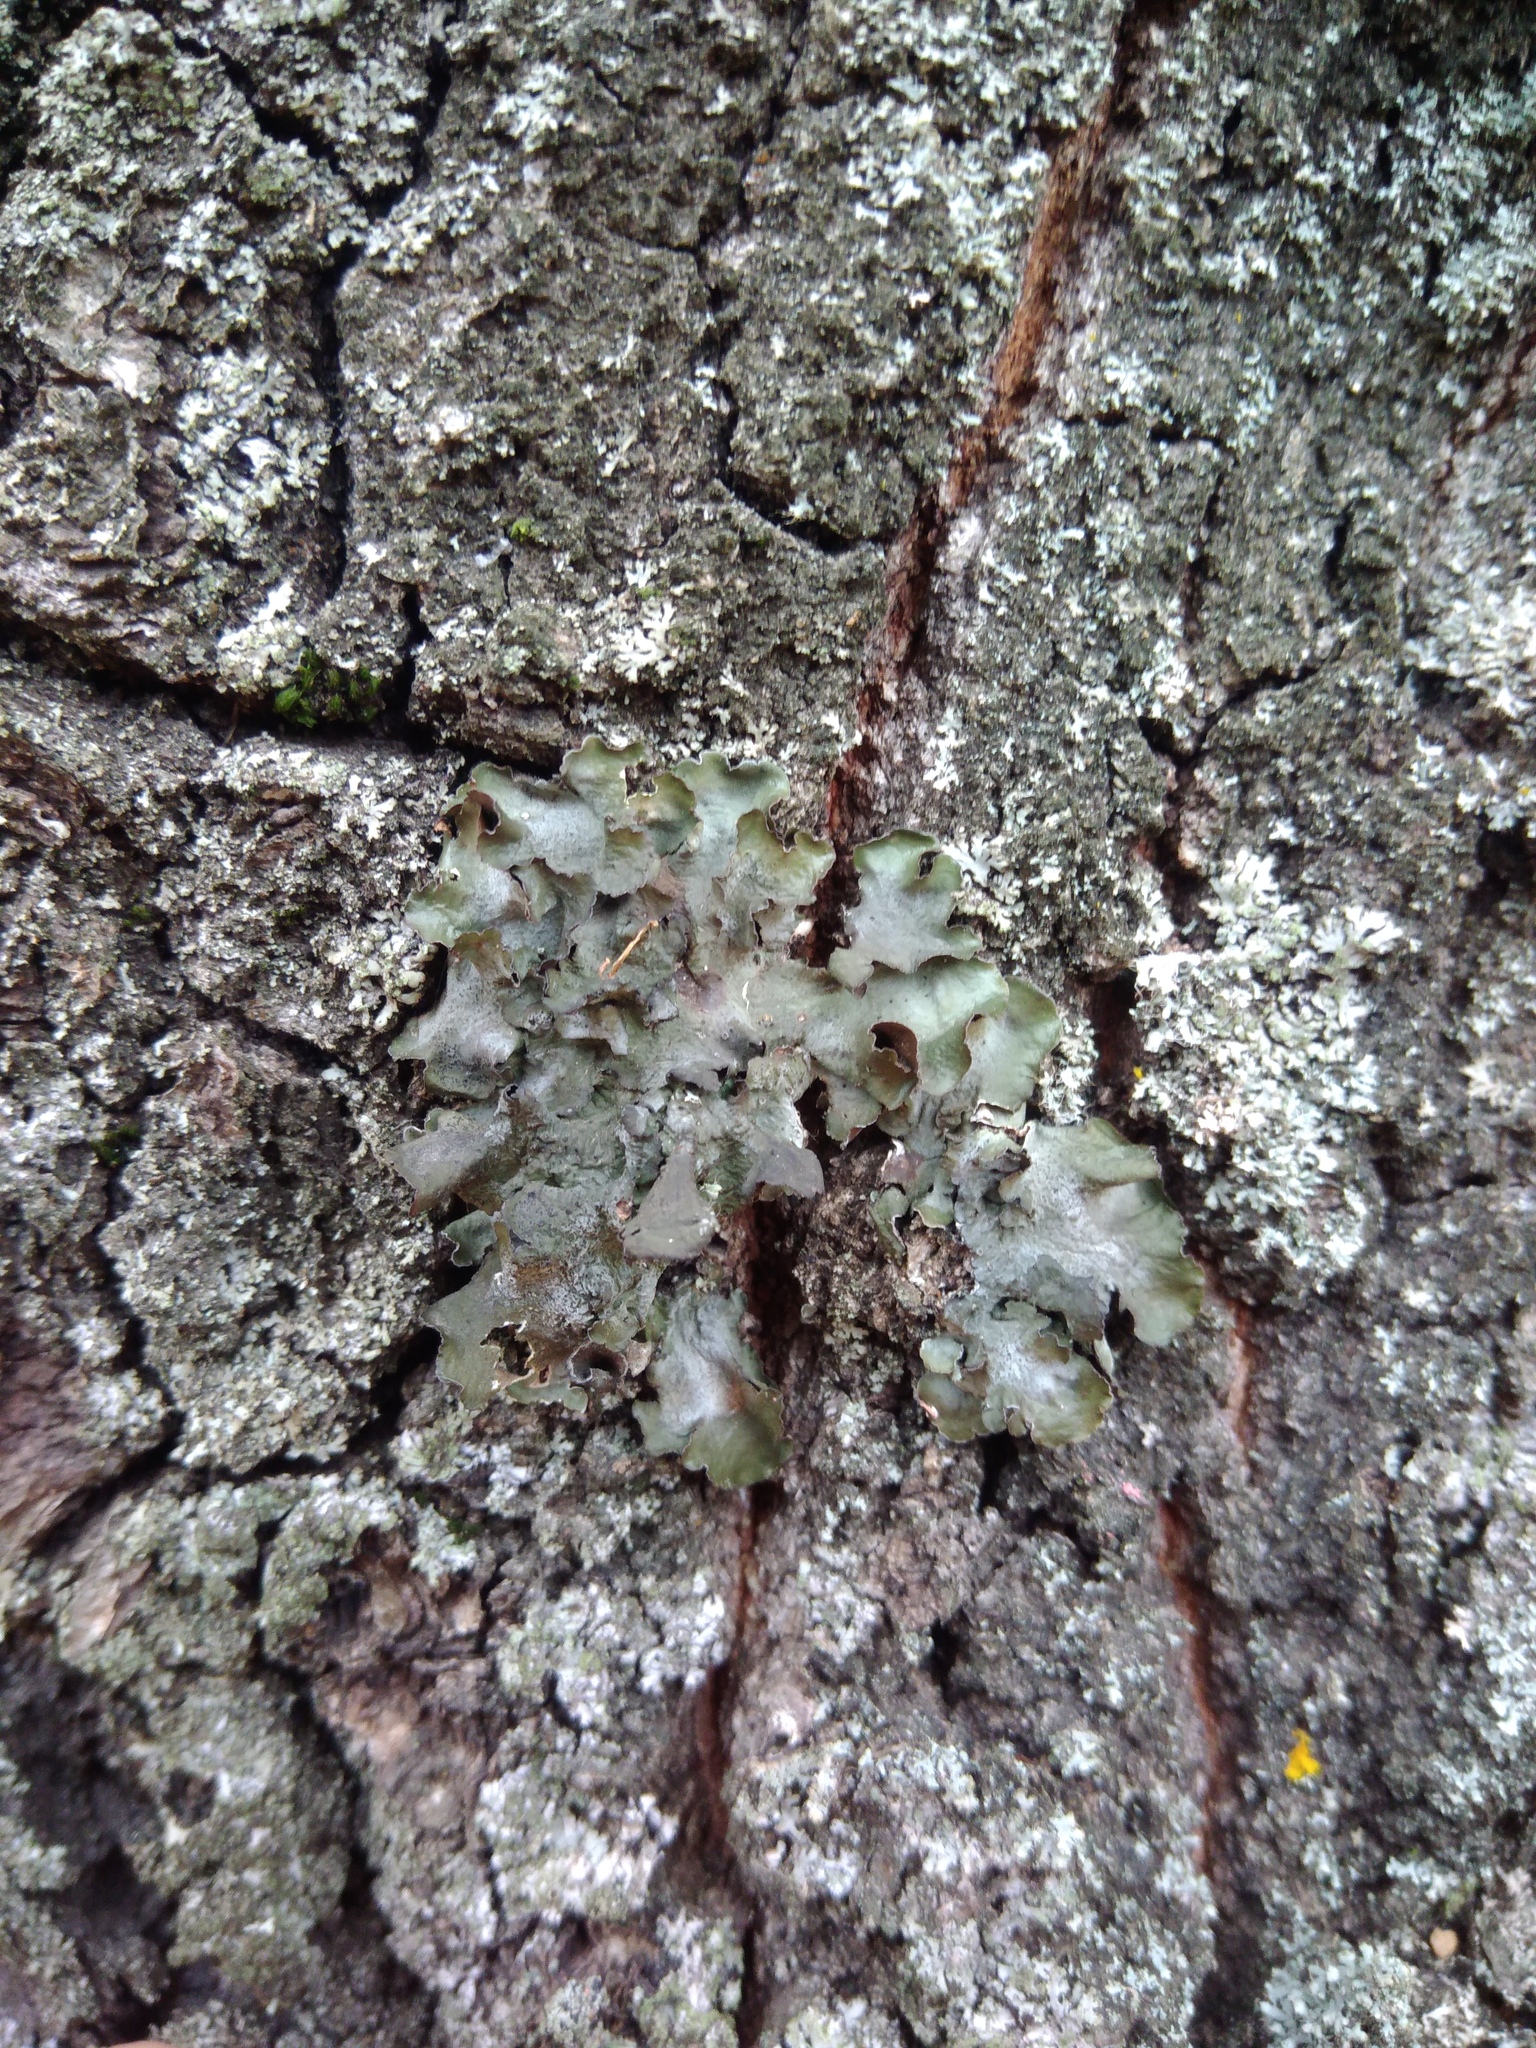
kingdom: Fungi
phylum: Ascomycota
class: Lecanoromycetes
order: Lecanorales
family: Parmeliaceae
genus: Pleurosticta
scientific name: Pleurosticta acetabulum
